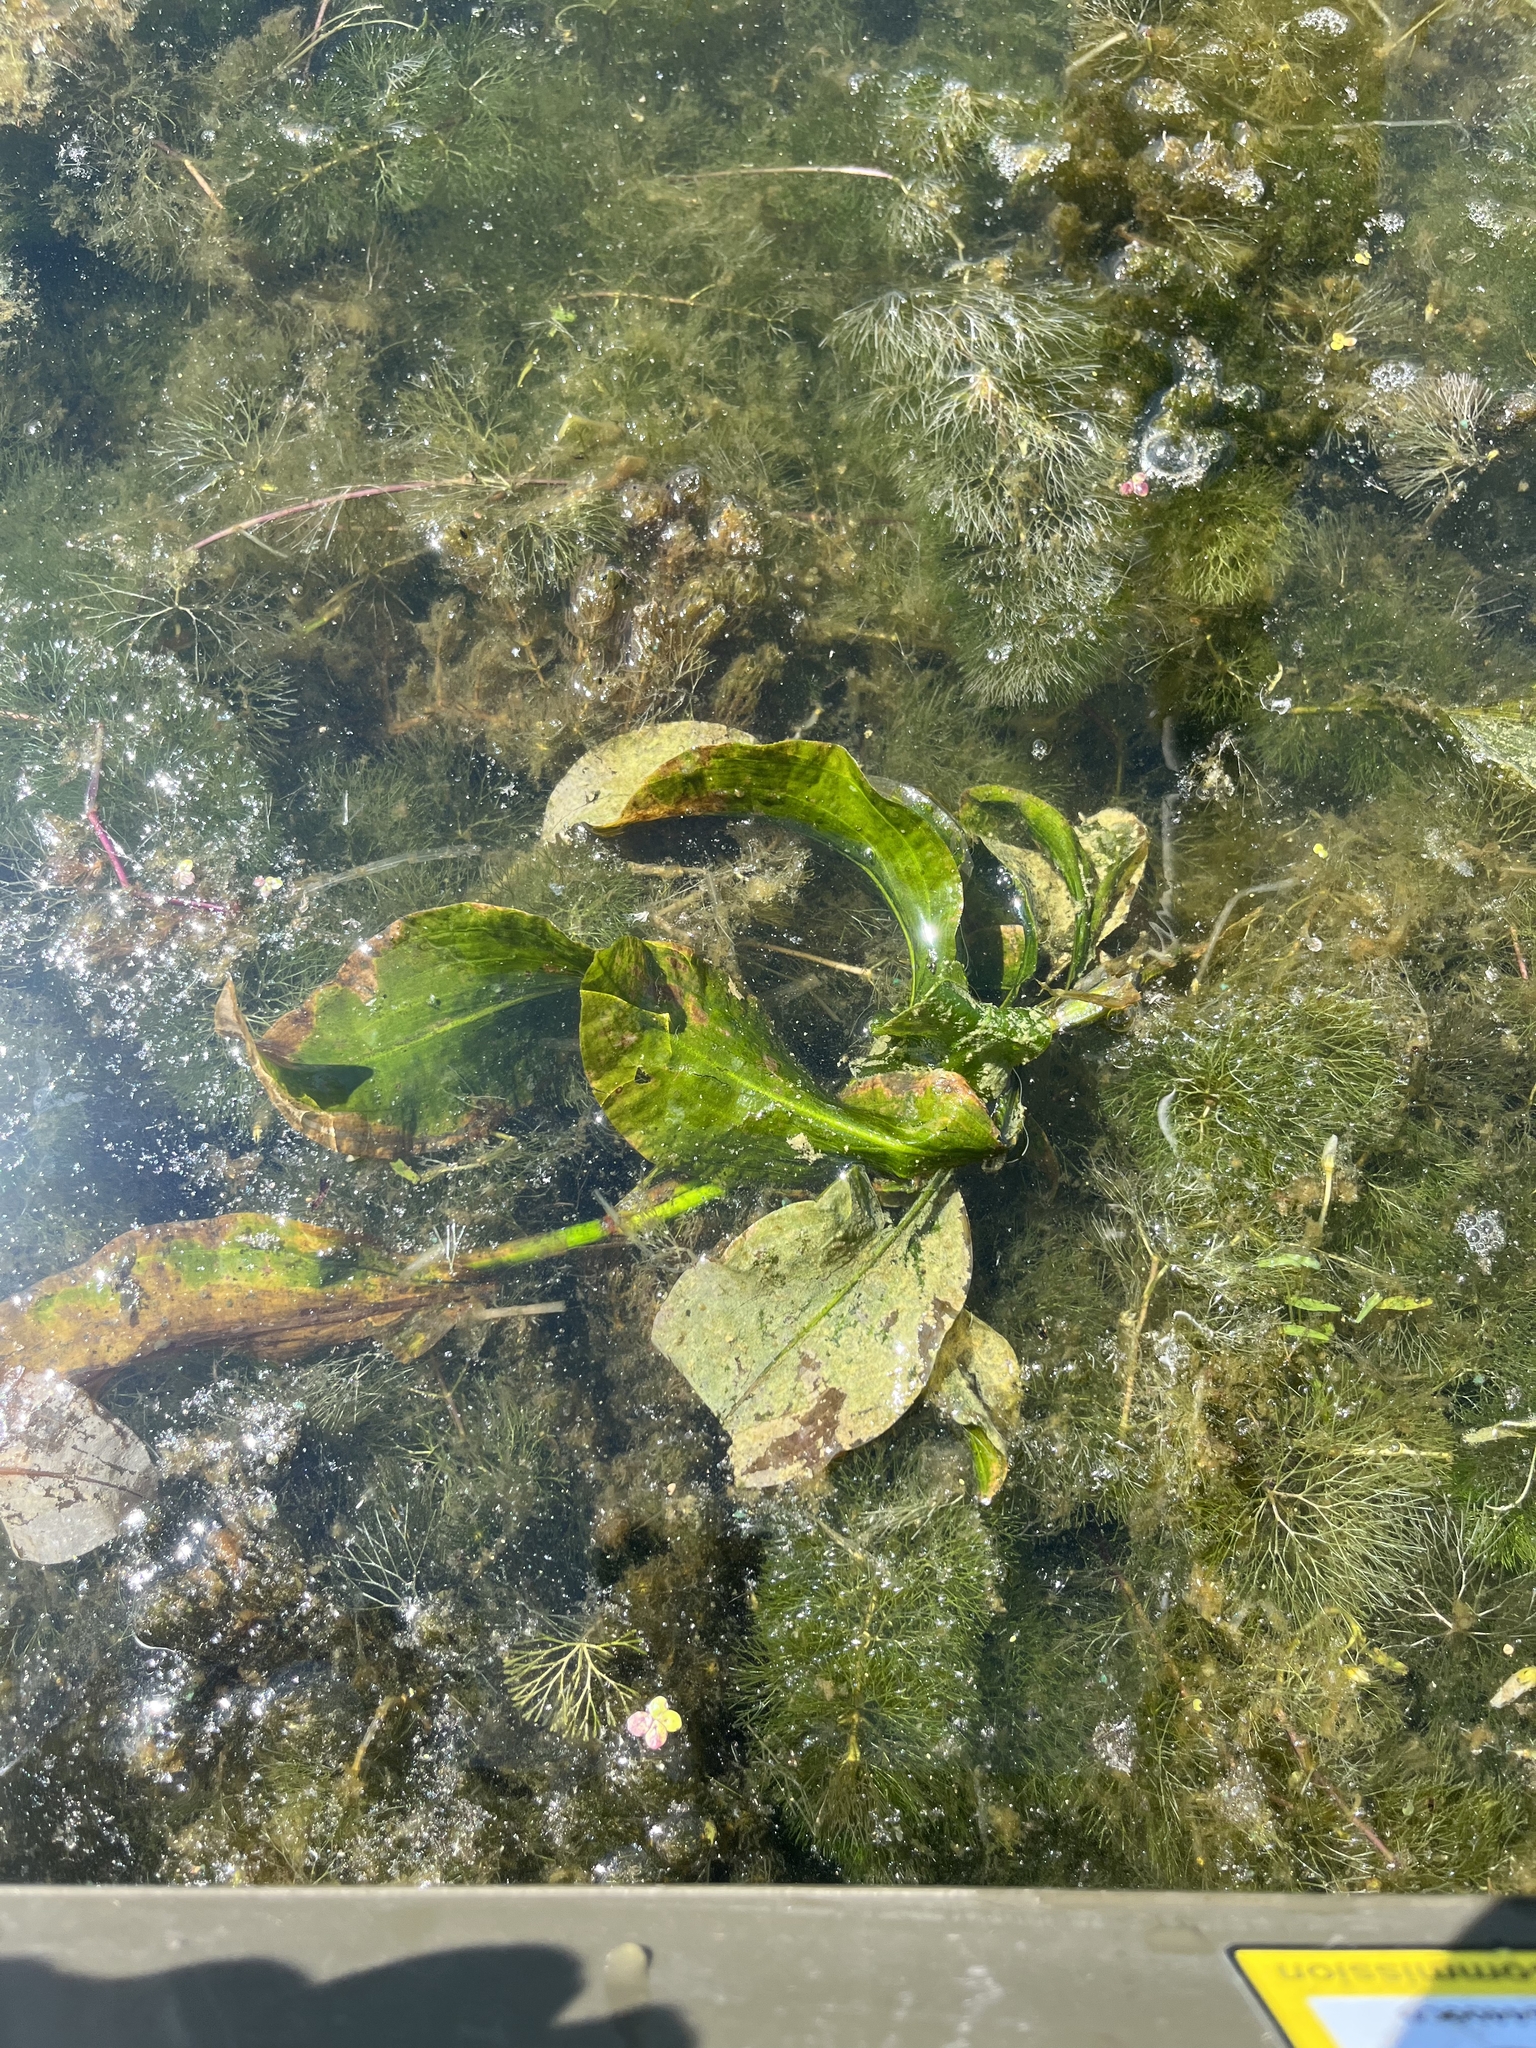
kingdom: Plantae
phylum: Tracheophyta
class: Liliopsida
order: Alismatales
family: Potamogetonaceae
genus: Potamogeton
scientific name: Potamogeton amplifolius
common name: Broad-leaved pondweed
